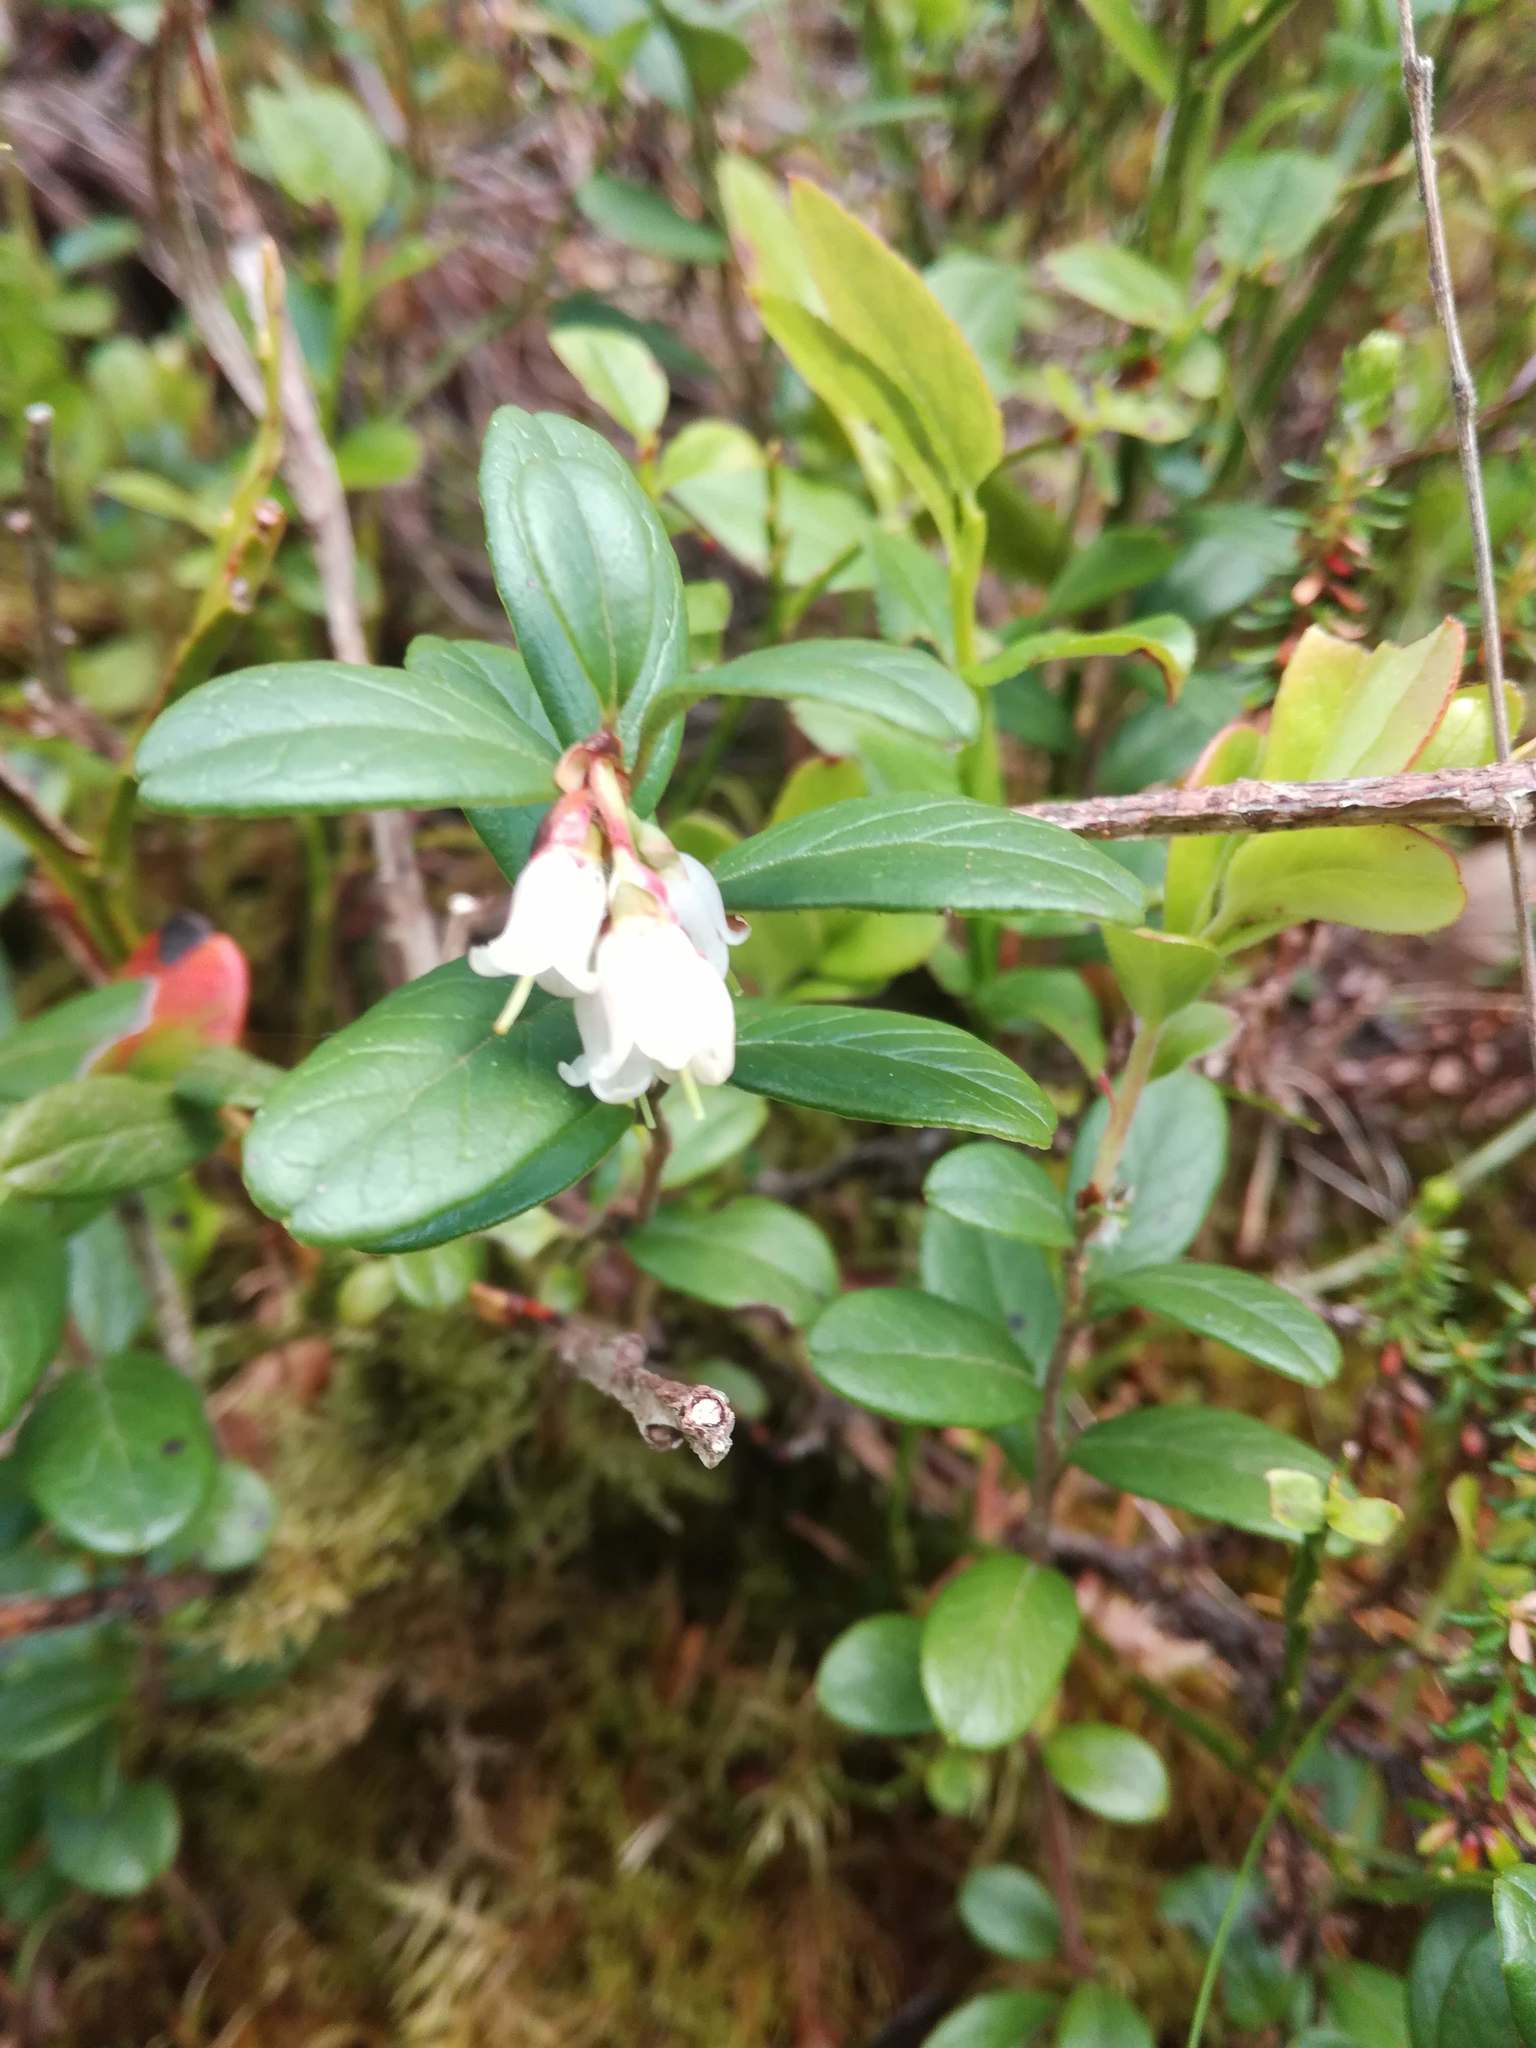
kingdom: Plantae
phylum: Tracheophyta
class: Magnoliopsida
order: Ericales
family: Ericaceae
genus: Vaccinium
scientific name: Vaccinium vitis-idaea
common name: Cowberry
